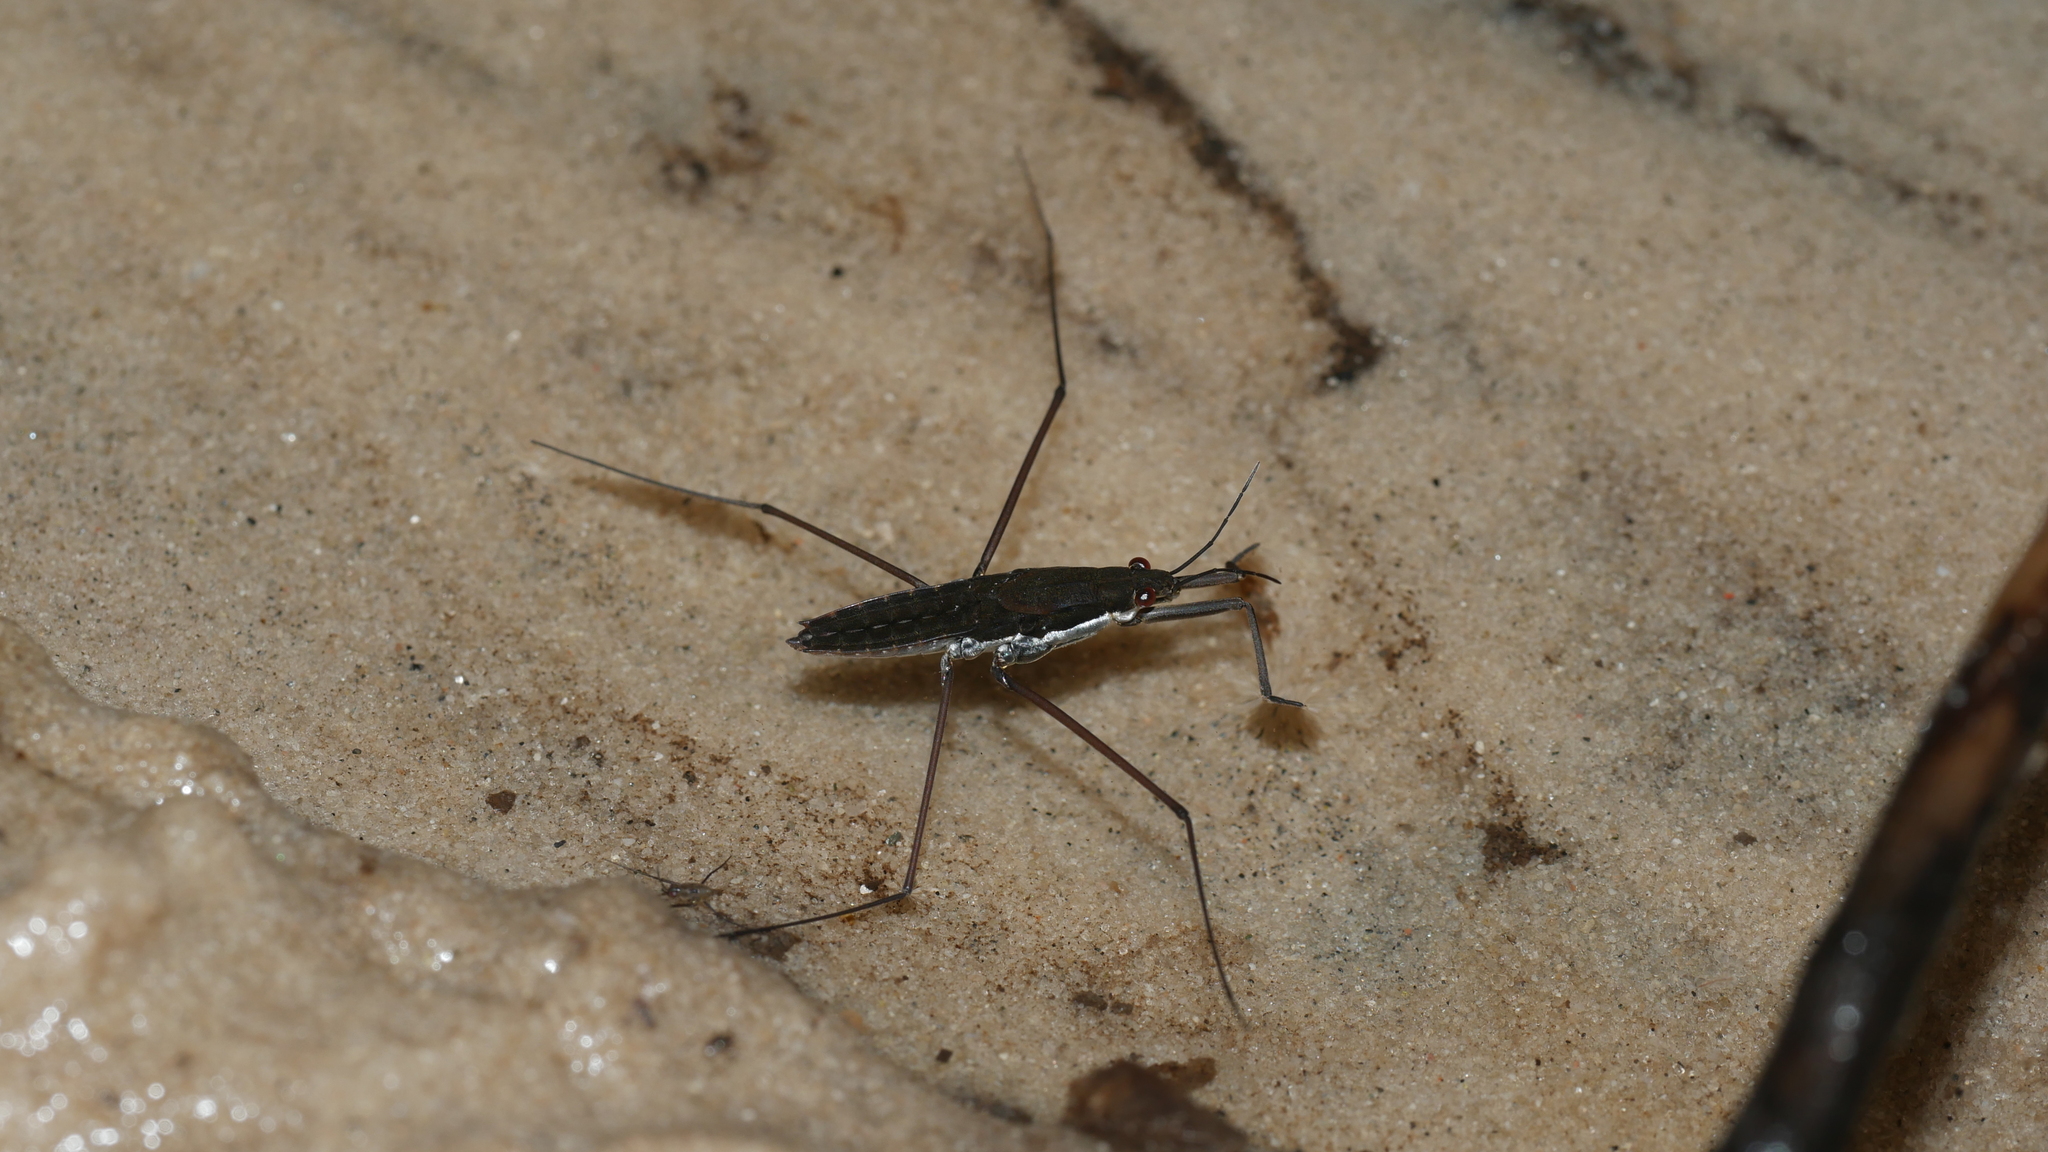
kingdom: Animalia
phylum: Arthropoda
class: Insecta
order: Hemiptera
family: Gerridae
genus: Aquarius
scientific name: Aquarius
